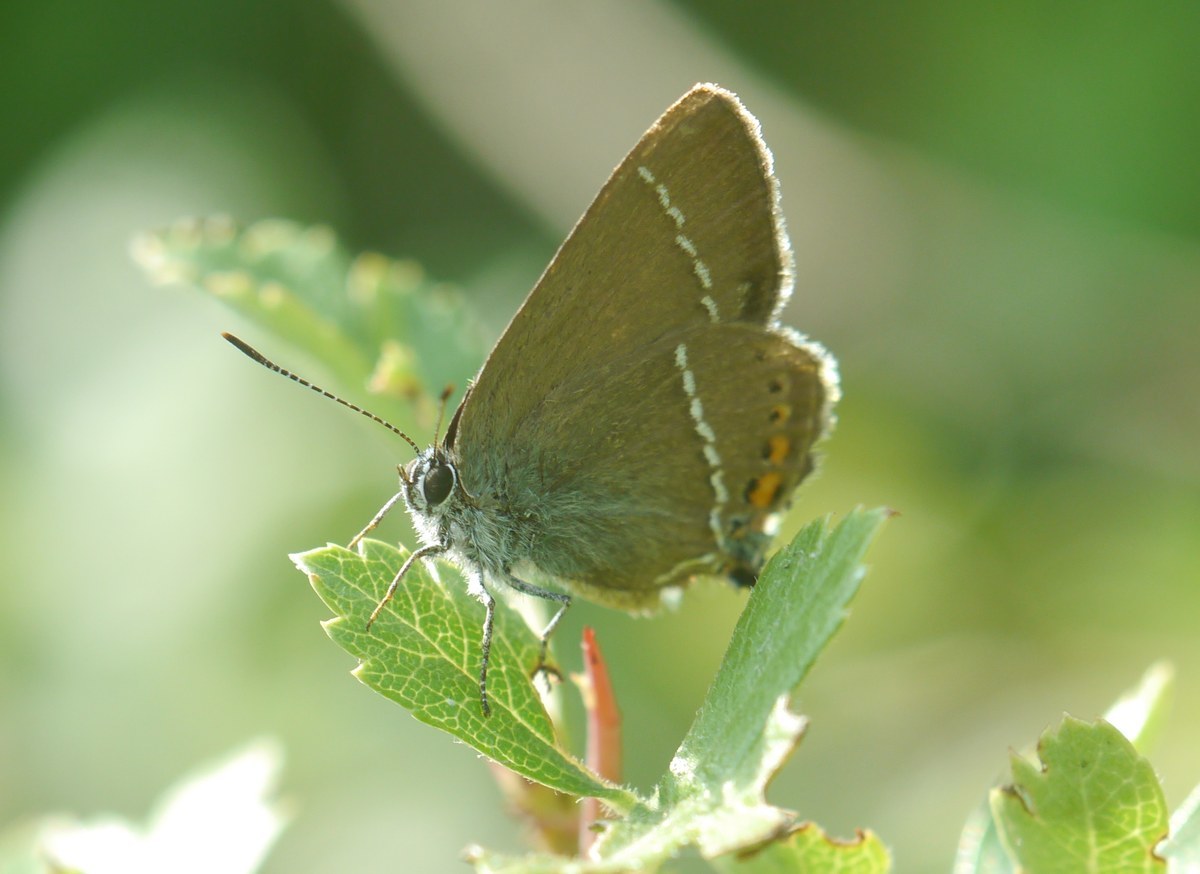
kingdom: Animalia
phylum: Arthropoda
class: Insecta
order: Lepidoptera
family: Lycaenidae
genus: Tuttiola
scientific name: Tuttiola spini
